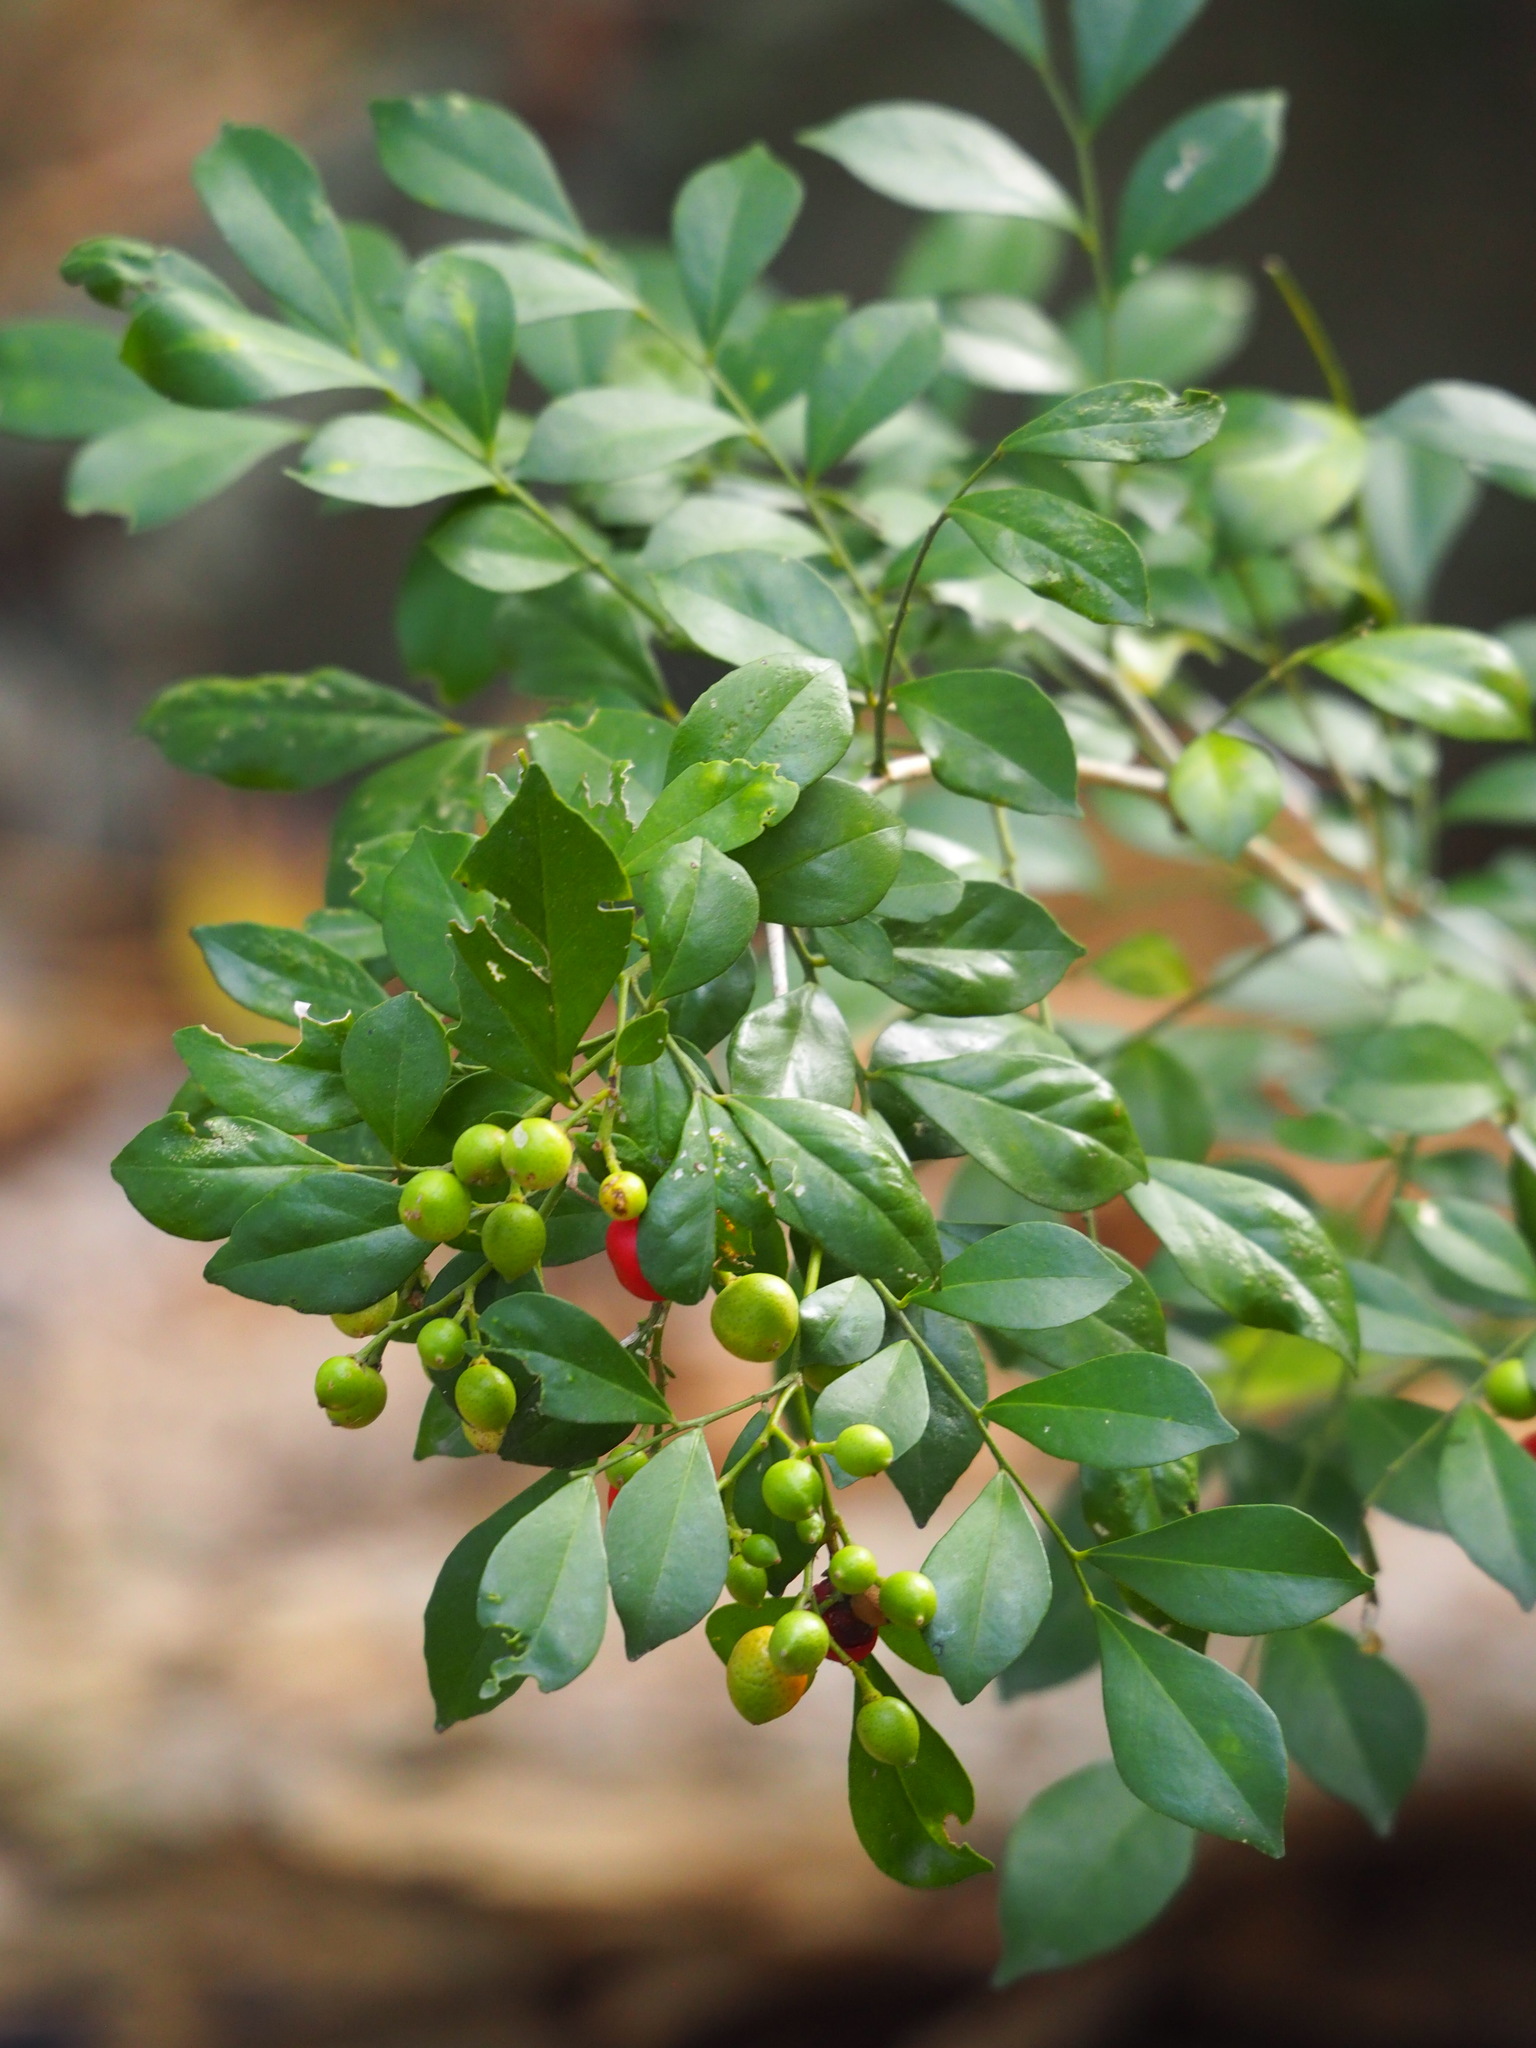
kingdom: Plantae
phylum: Tracheophyta
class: Magnoliopsida
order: Sapindales
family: Rutaceae
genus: Murraya
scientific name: Murraya paniculata
